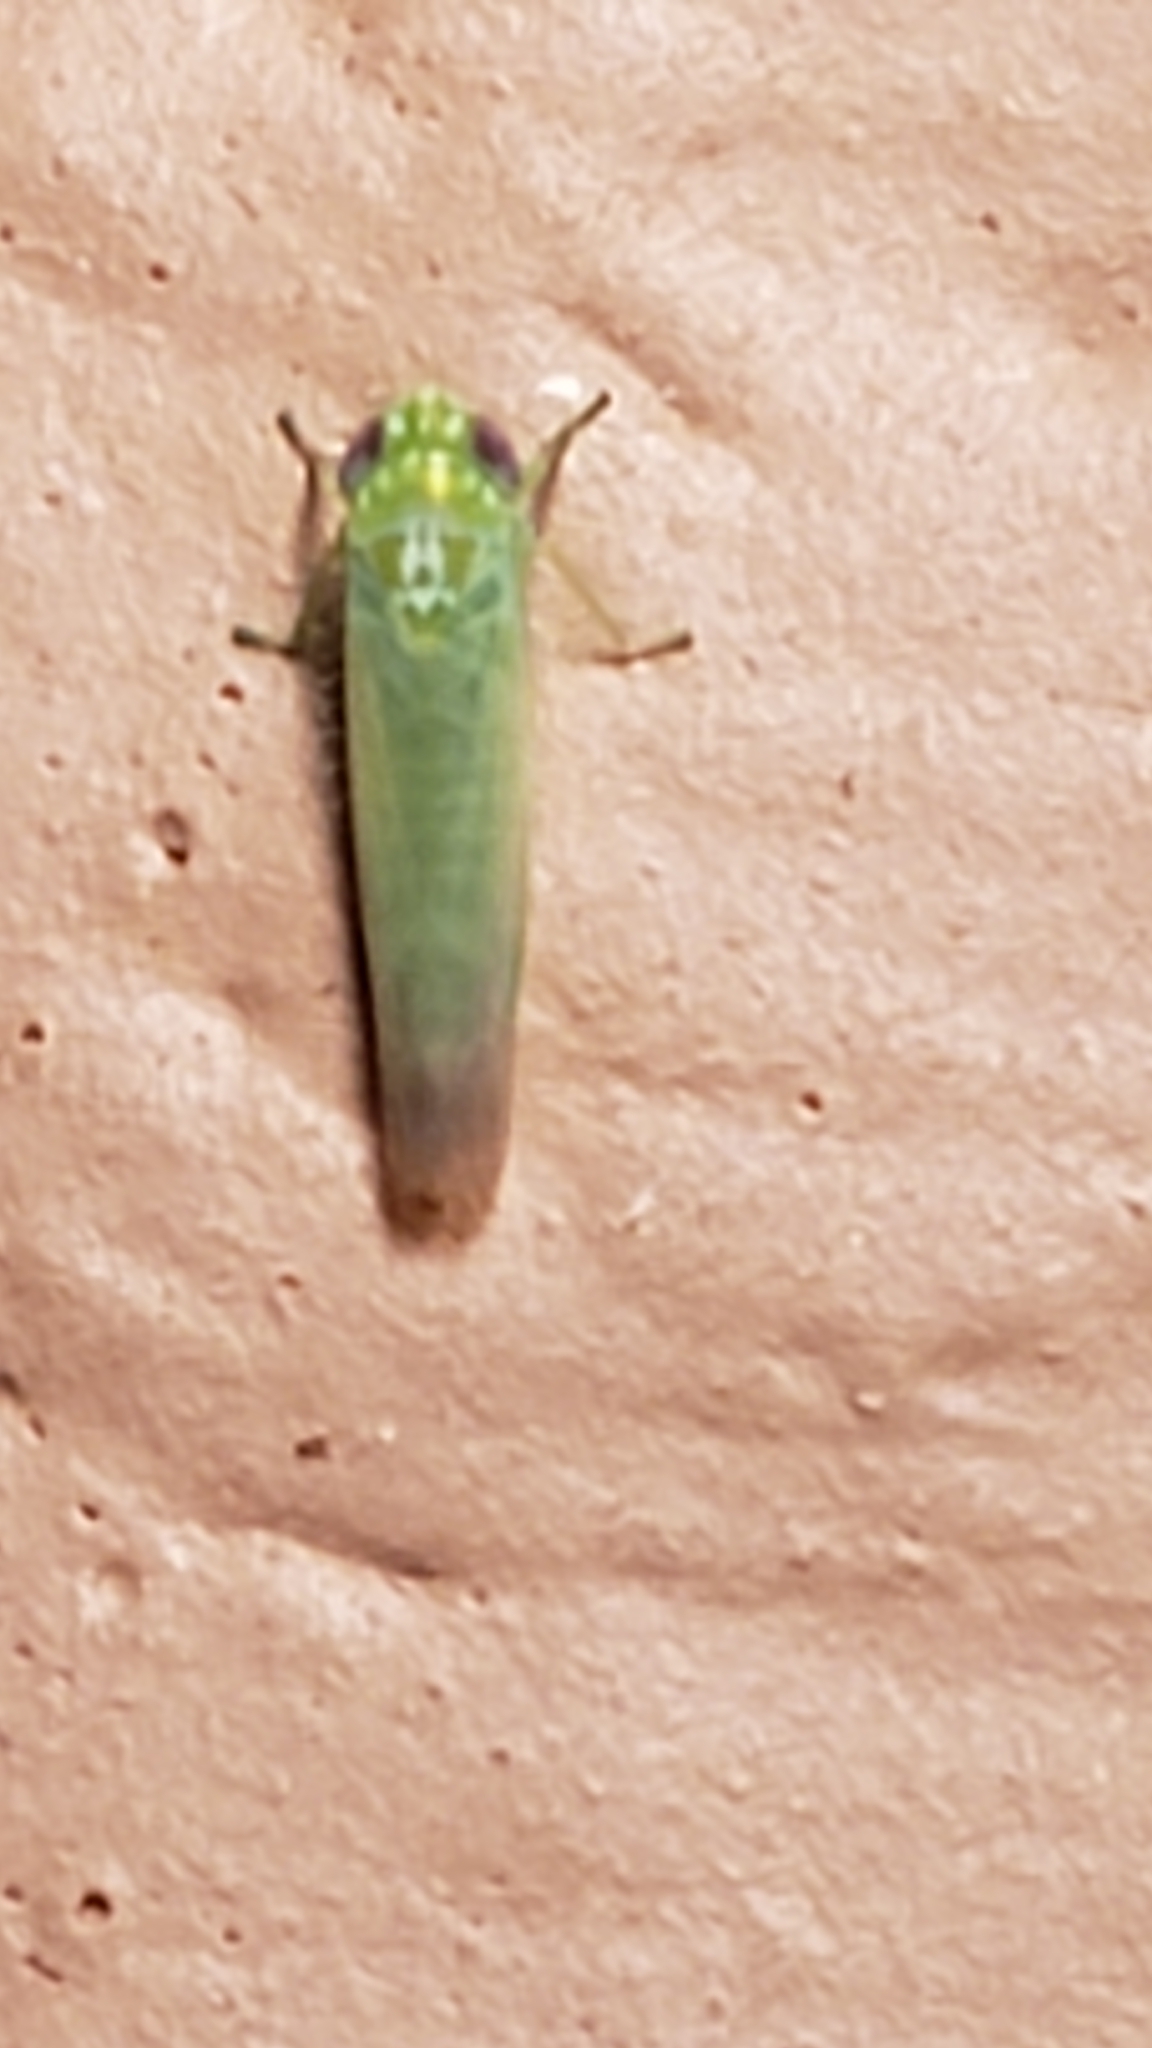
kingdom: Animalia
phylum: Arthropoda
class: Insecta
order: Hemiptera
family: Cicadellidae
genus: Empoasca
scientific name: Empoasca fabae
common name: Potato leafhopper
